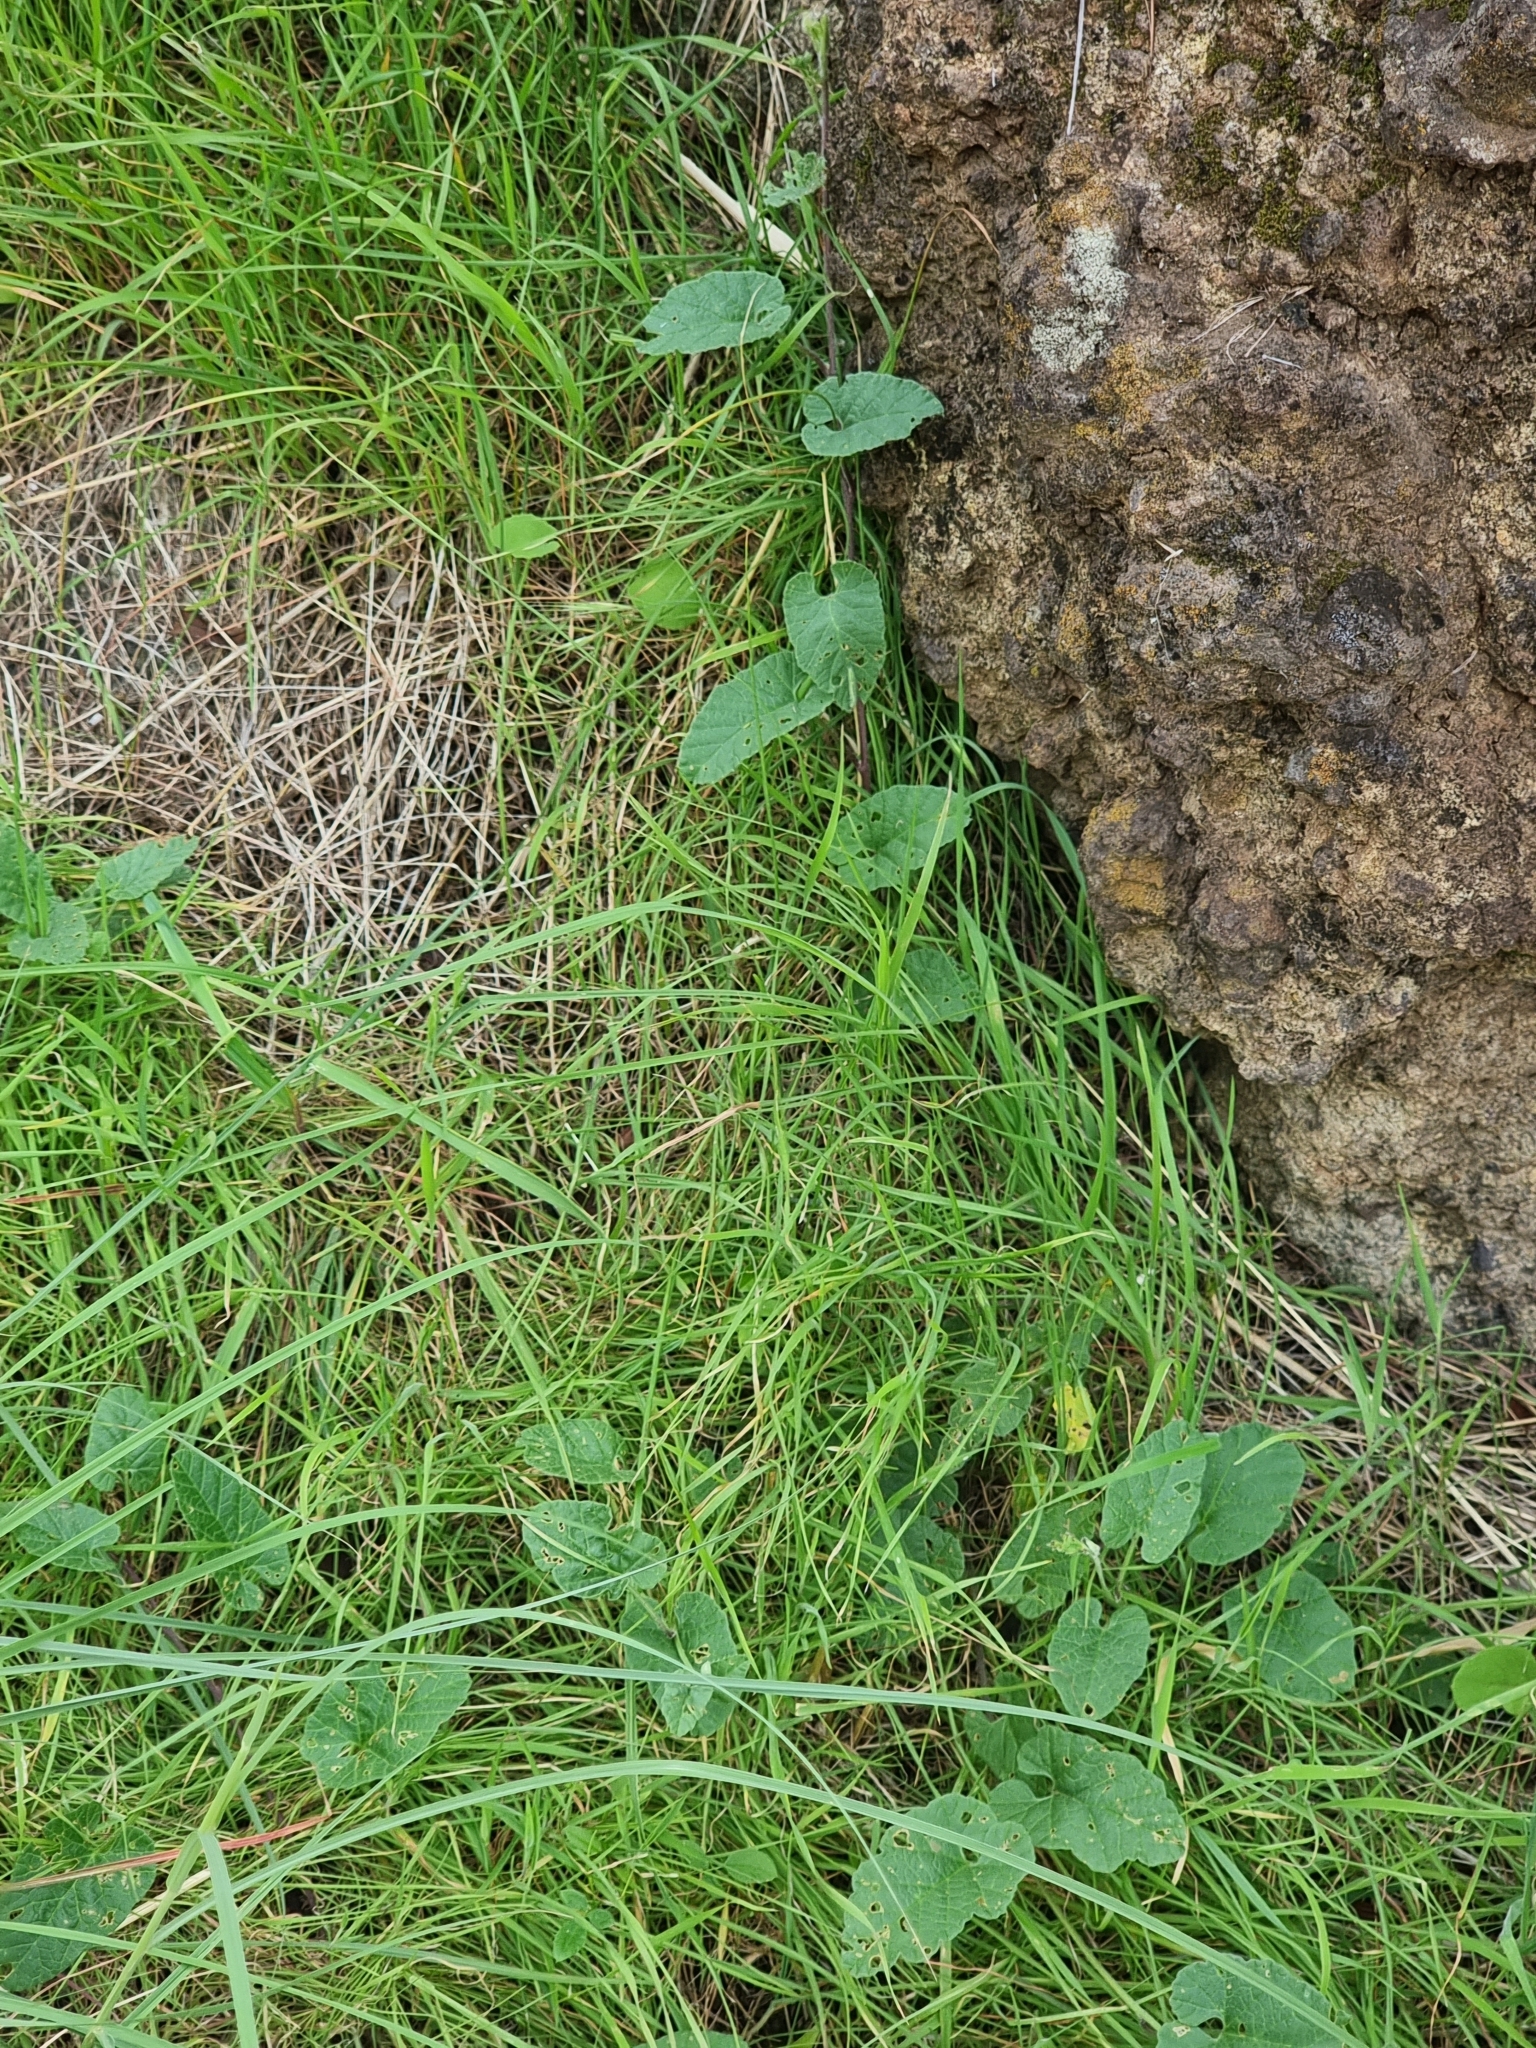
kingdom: Plantae
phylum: Tracheophyta
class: Magnoliopsida
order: Solanales
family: Convolvulaceae
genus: Convolvulus
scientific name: Convolvulus althaeoides
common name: Mallow bindweed
